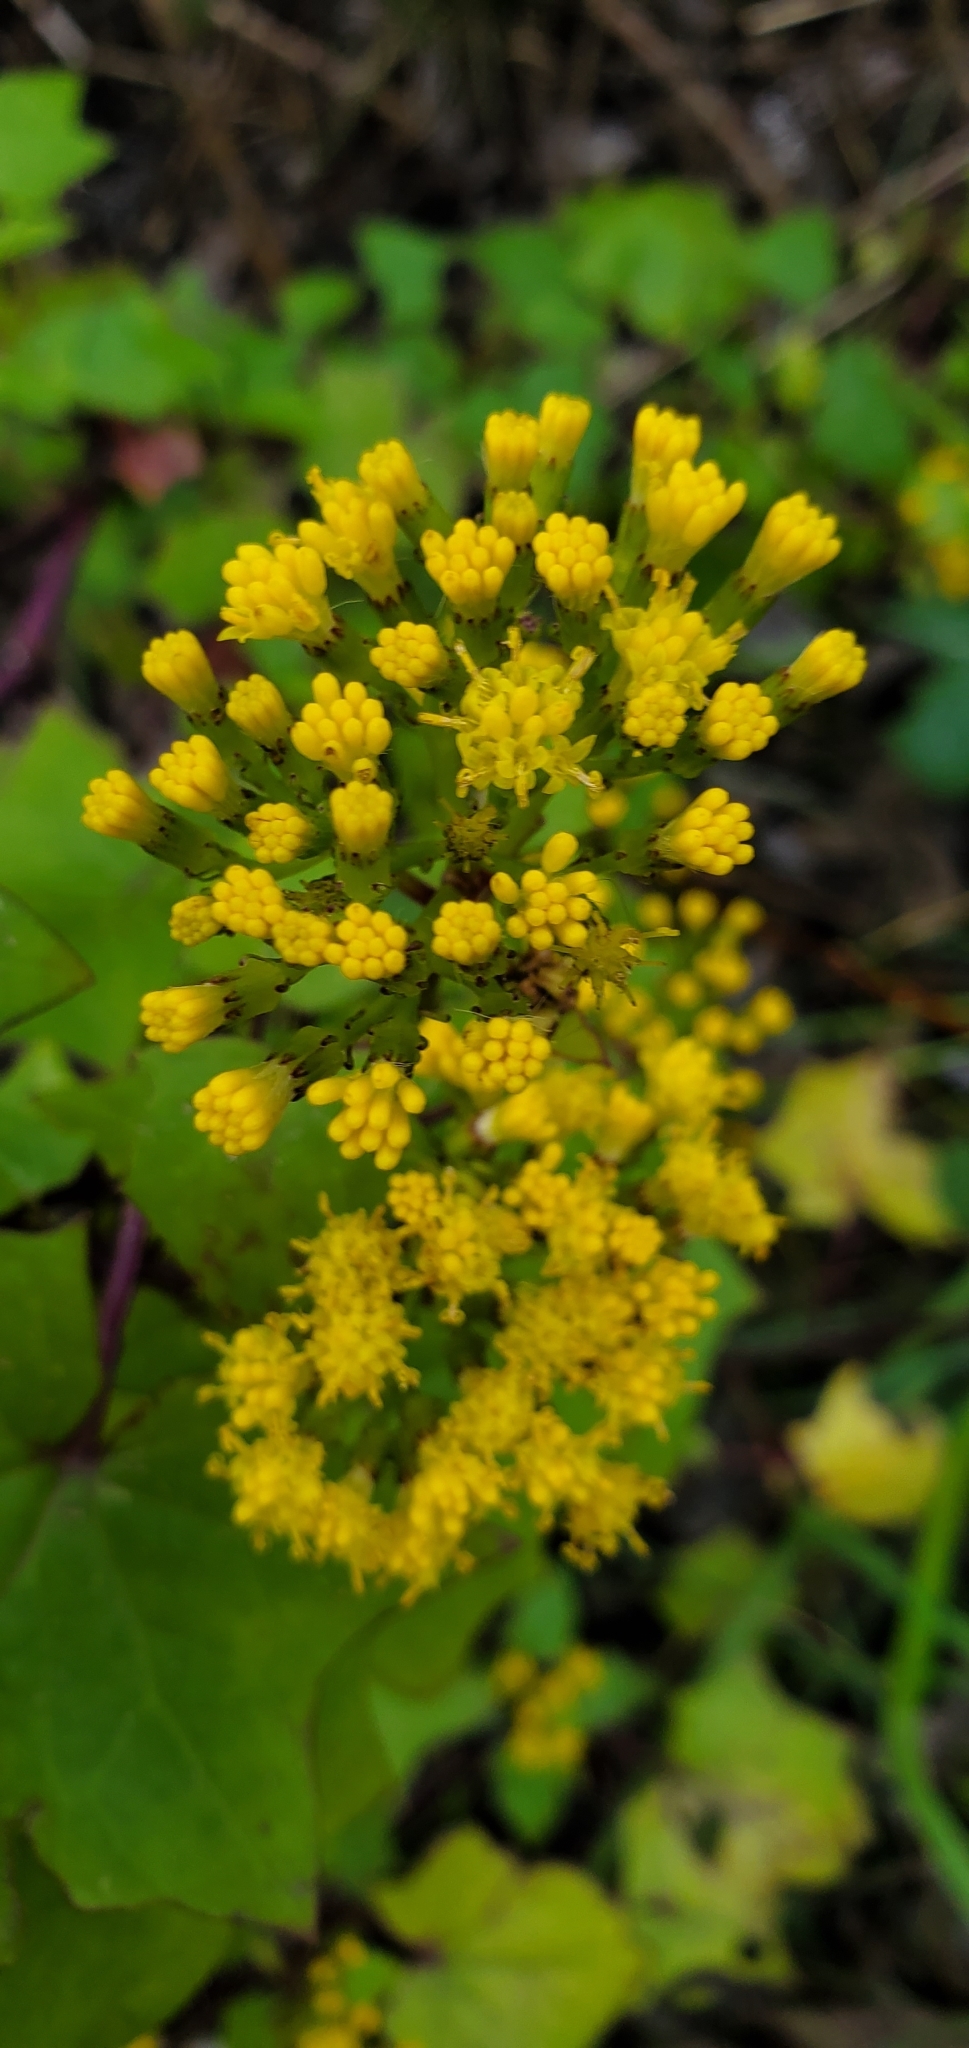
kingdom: Plantae
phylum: Tracheophyta
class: Magnoliopsida
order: Asterales
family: Asteraceae
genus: Delairea
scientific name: Delairea odorata
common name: Cape-ivy
